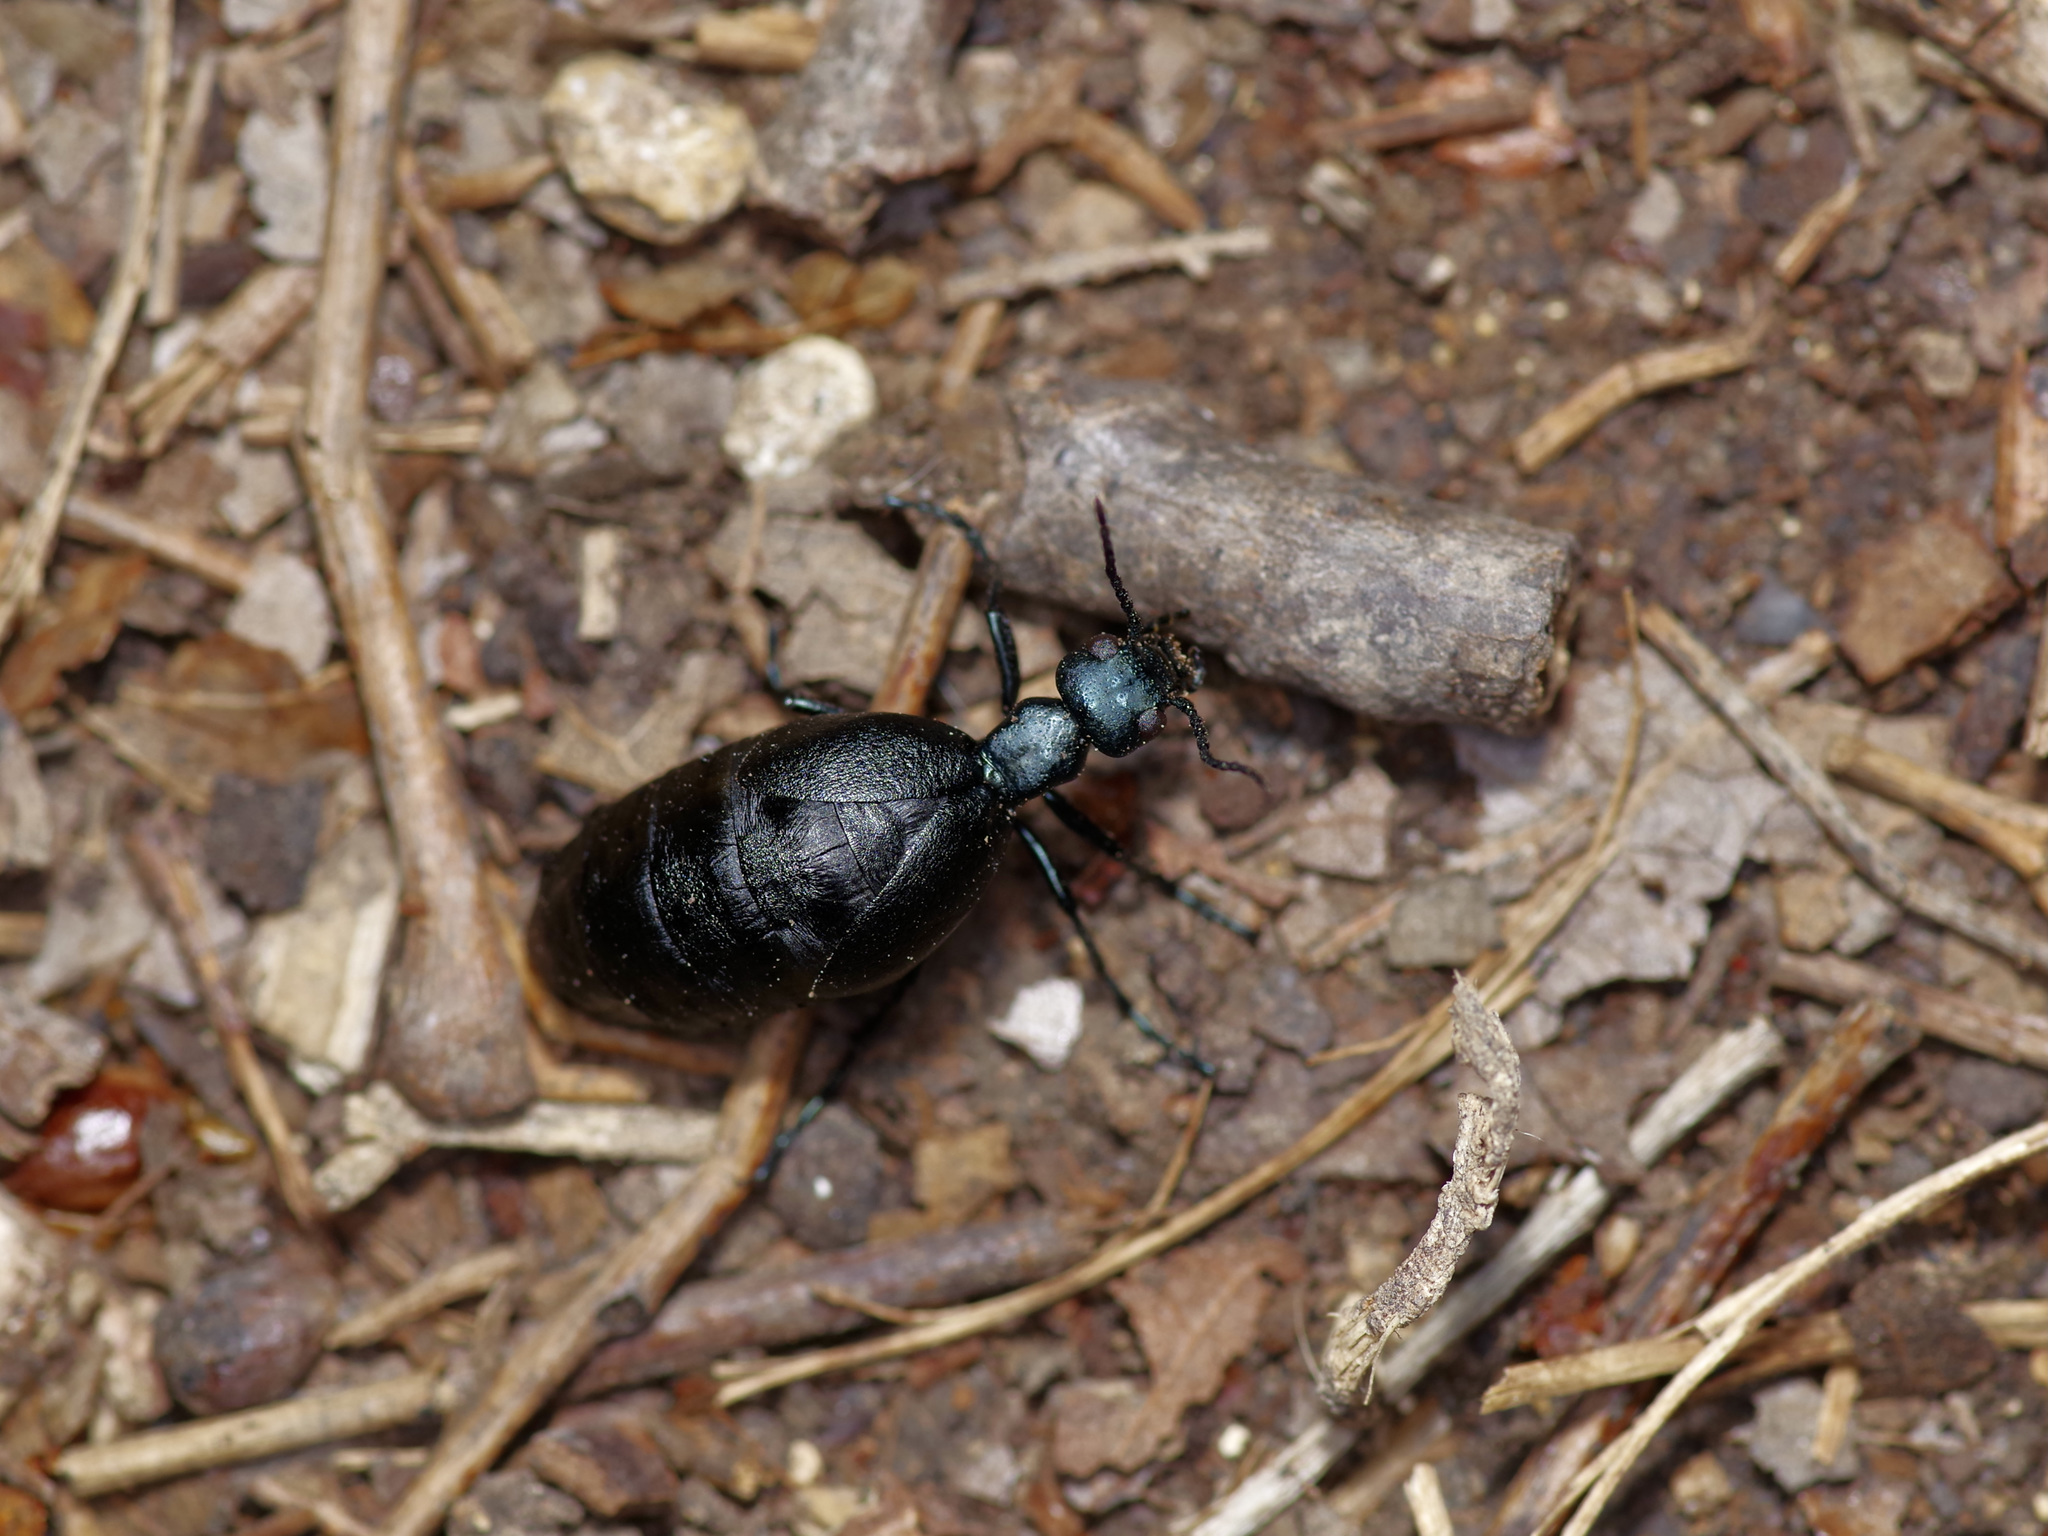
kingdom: Animalia
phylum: Arthropoda
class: Insecta
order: Coleoptera
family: Meloidae
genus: Meloe
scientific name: Meloe americanus
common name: Buttercup oil beetle
